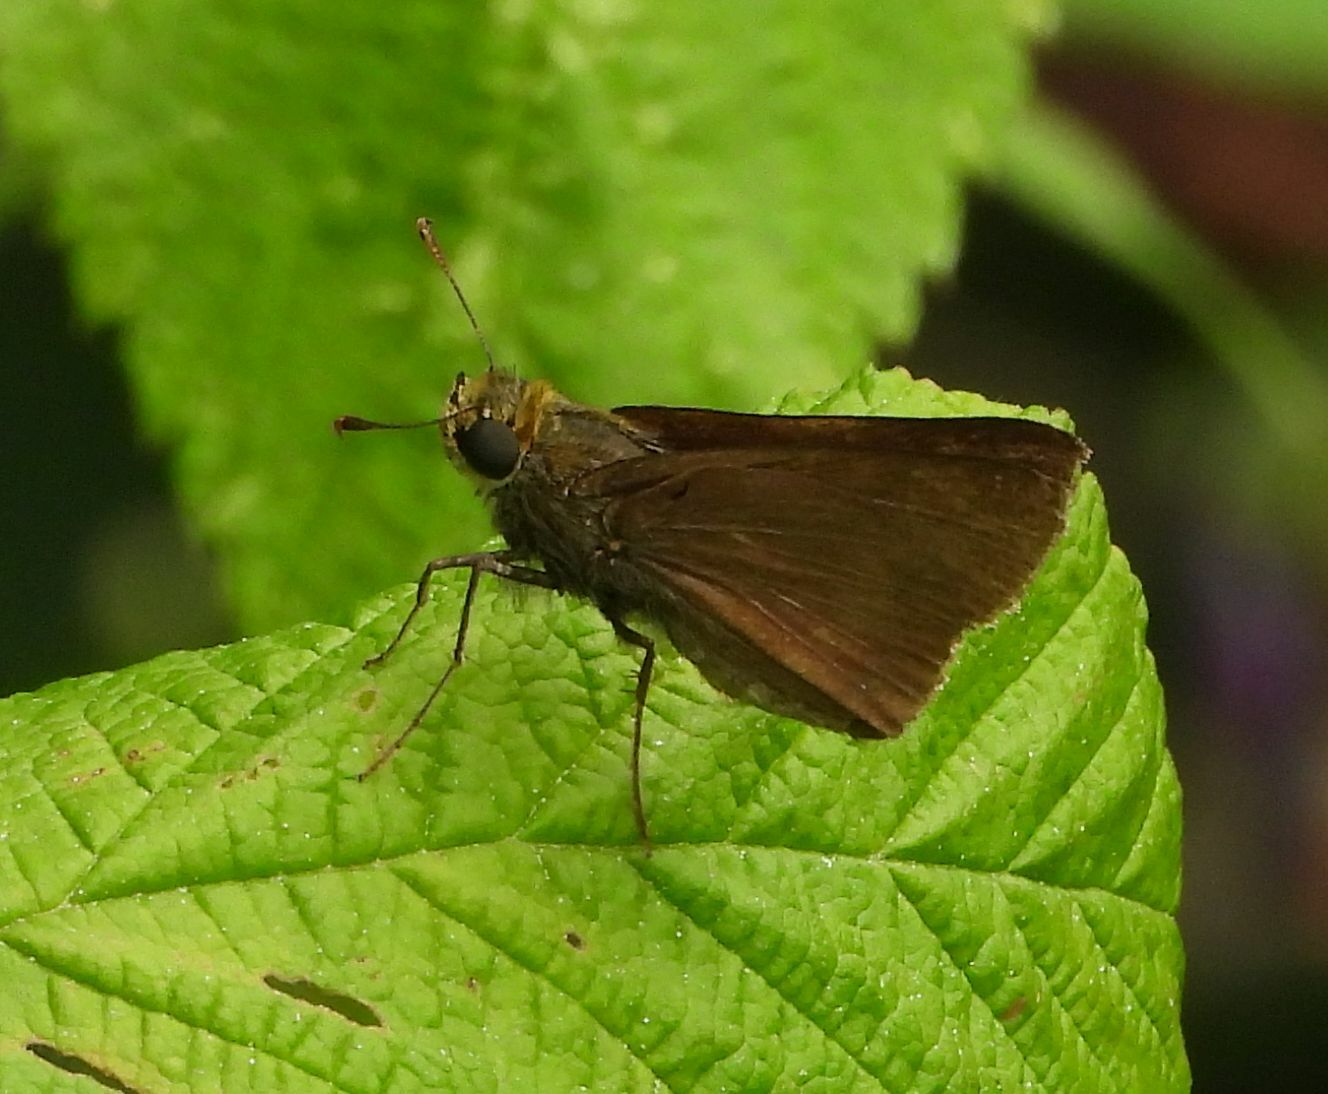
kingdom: Animalia
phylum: Arthropoda
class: Insecta
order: Lepidoptera
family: Hesperiidae
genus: Euphyes
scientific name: Euphyes vestris
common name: Dun skipper
